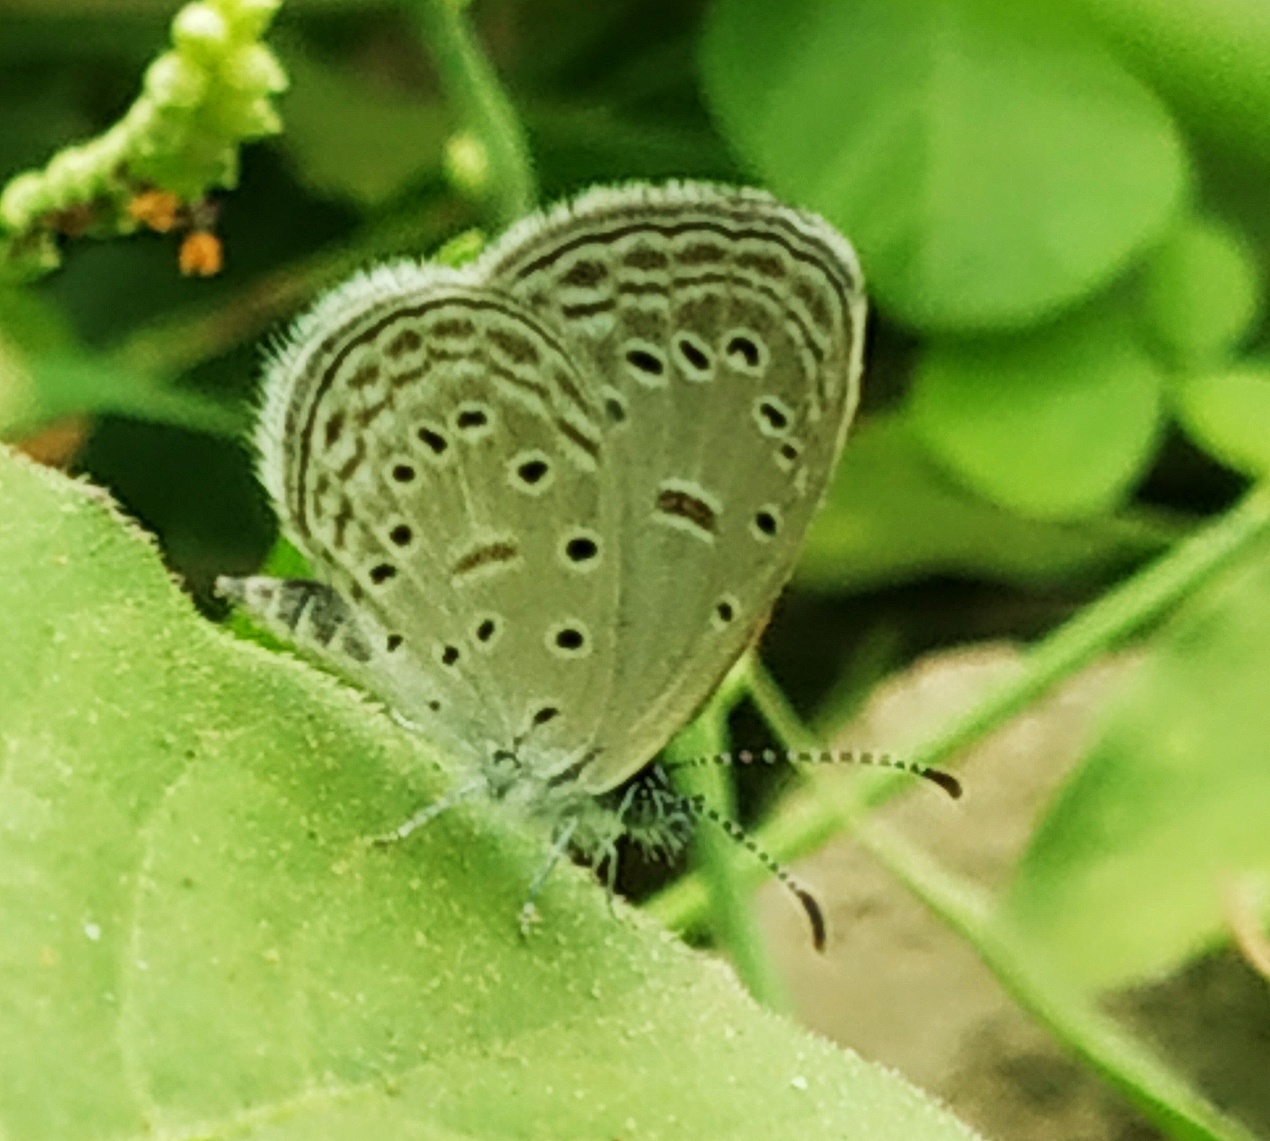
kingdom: Animalia
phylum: Arthropoda
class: Insecta
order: Lepidoptera
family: Lycaenidae
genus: Zizula
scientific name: Zizula hylax
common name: Gaika blue
